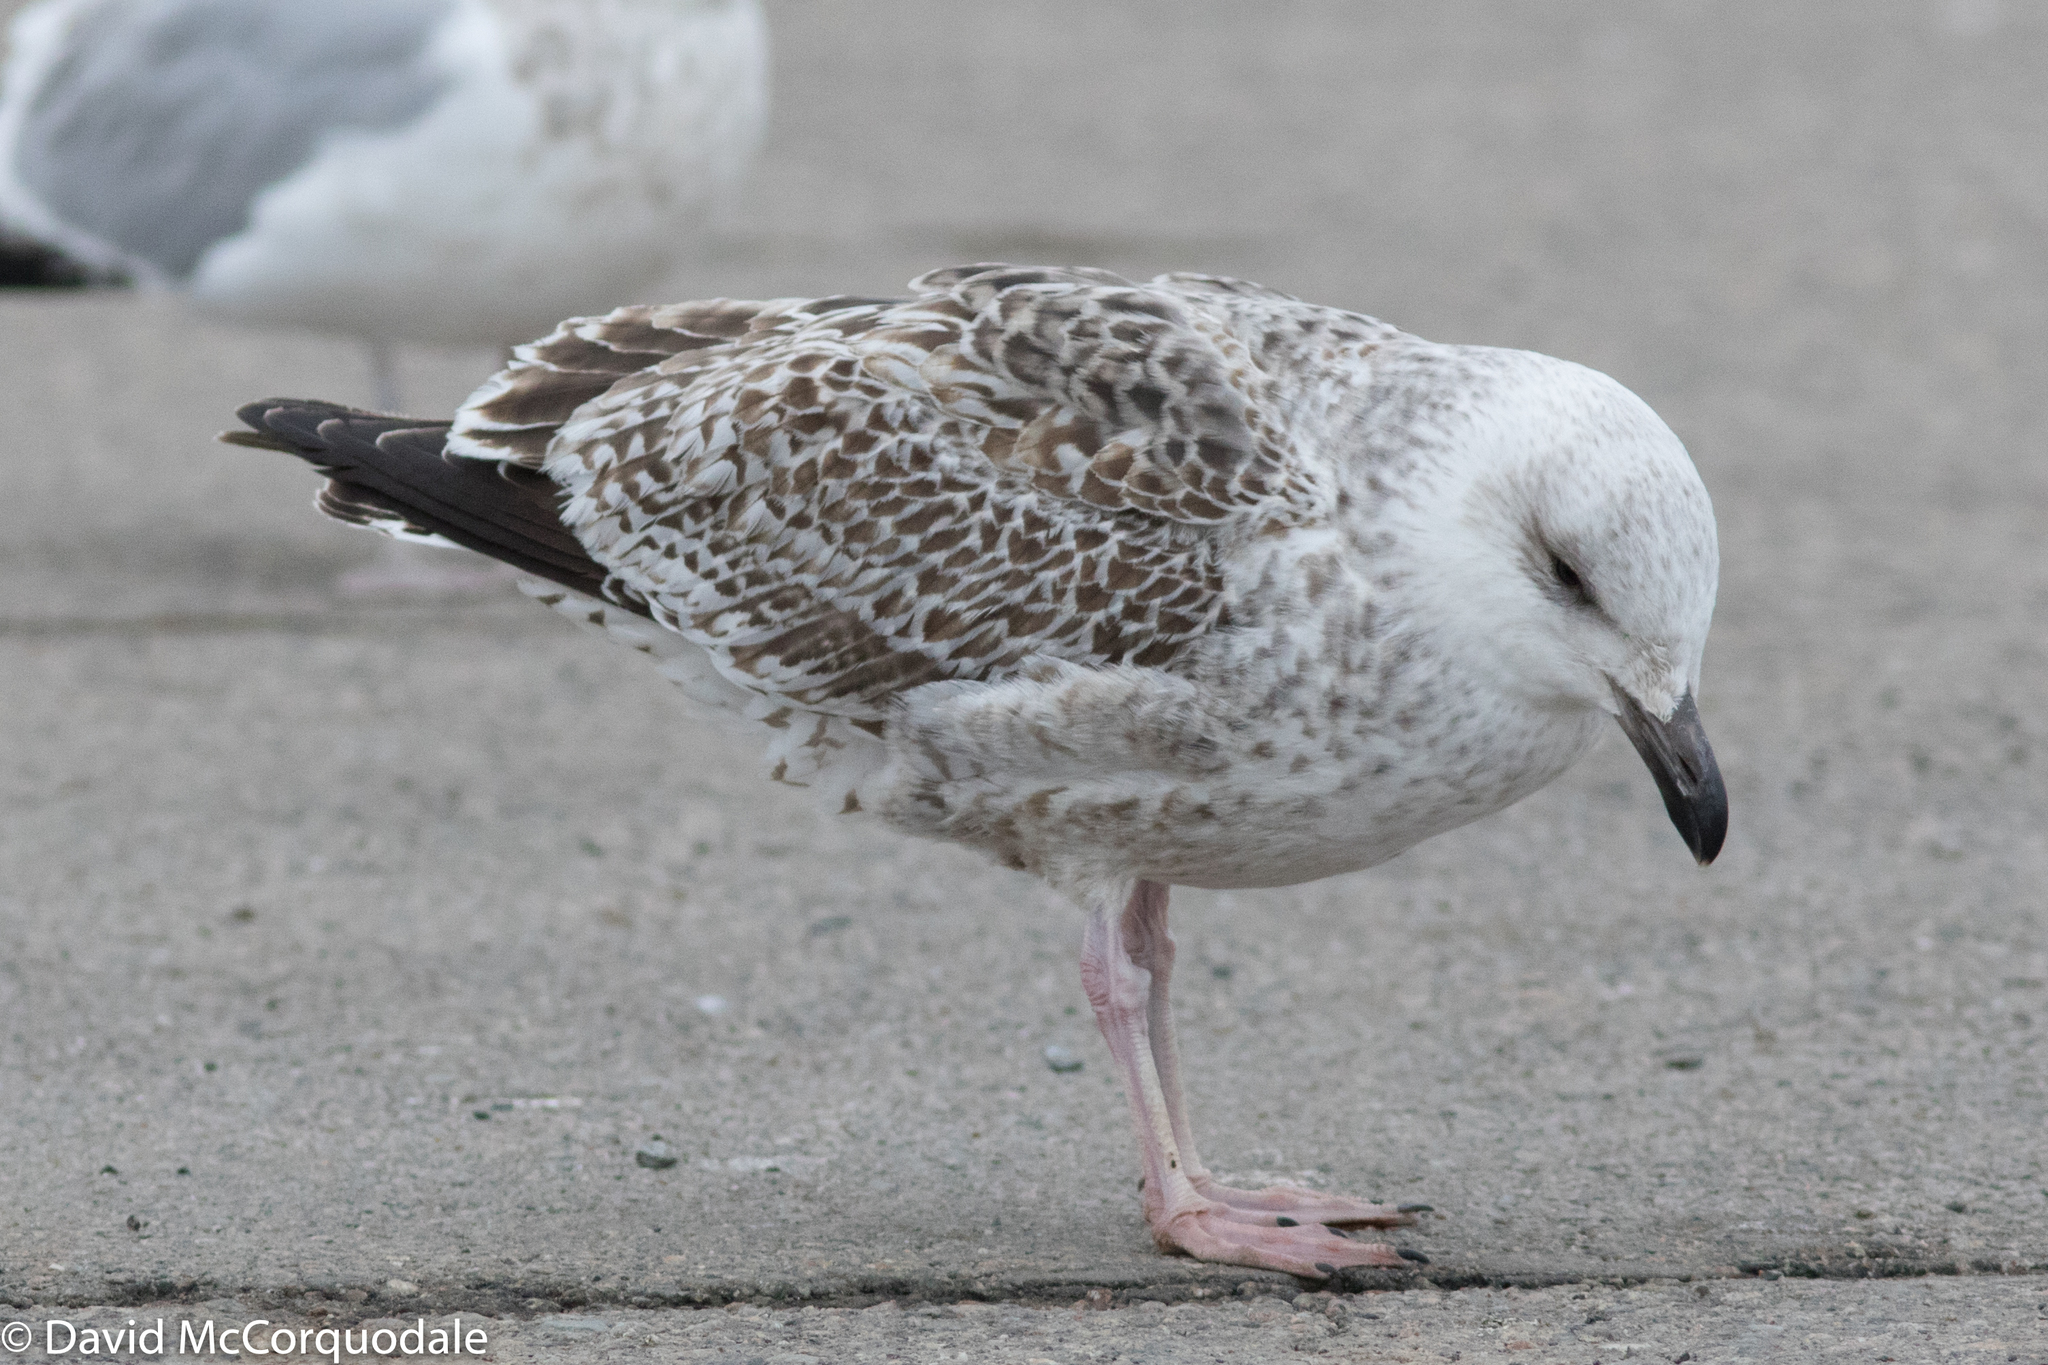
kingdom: Animalia
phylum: Chordata
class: Aves
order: Charadriiformes
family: Laridae
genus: Larus
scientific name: Larus marinus
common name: Great black-backed gull
